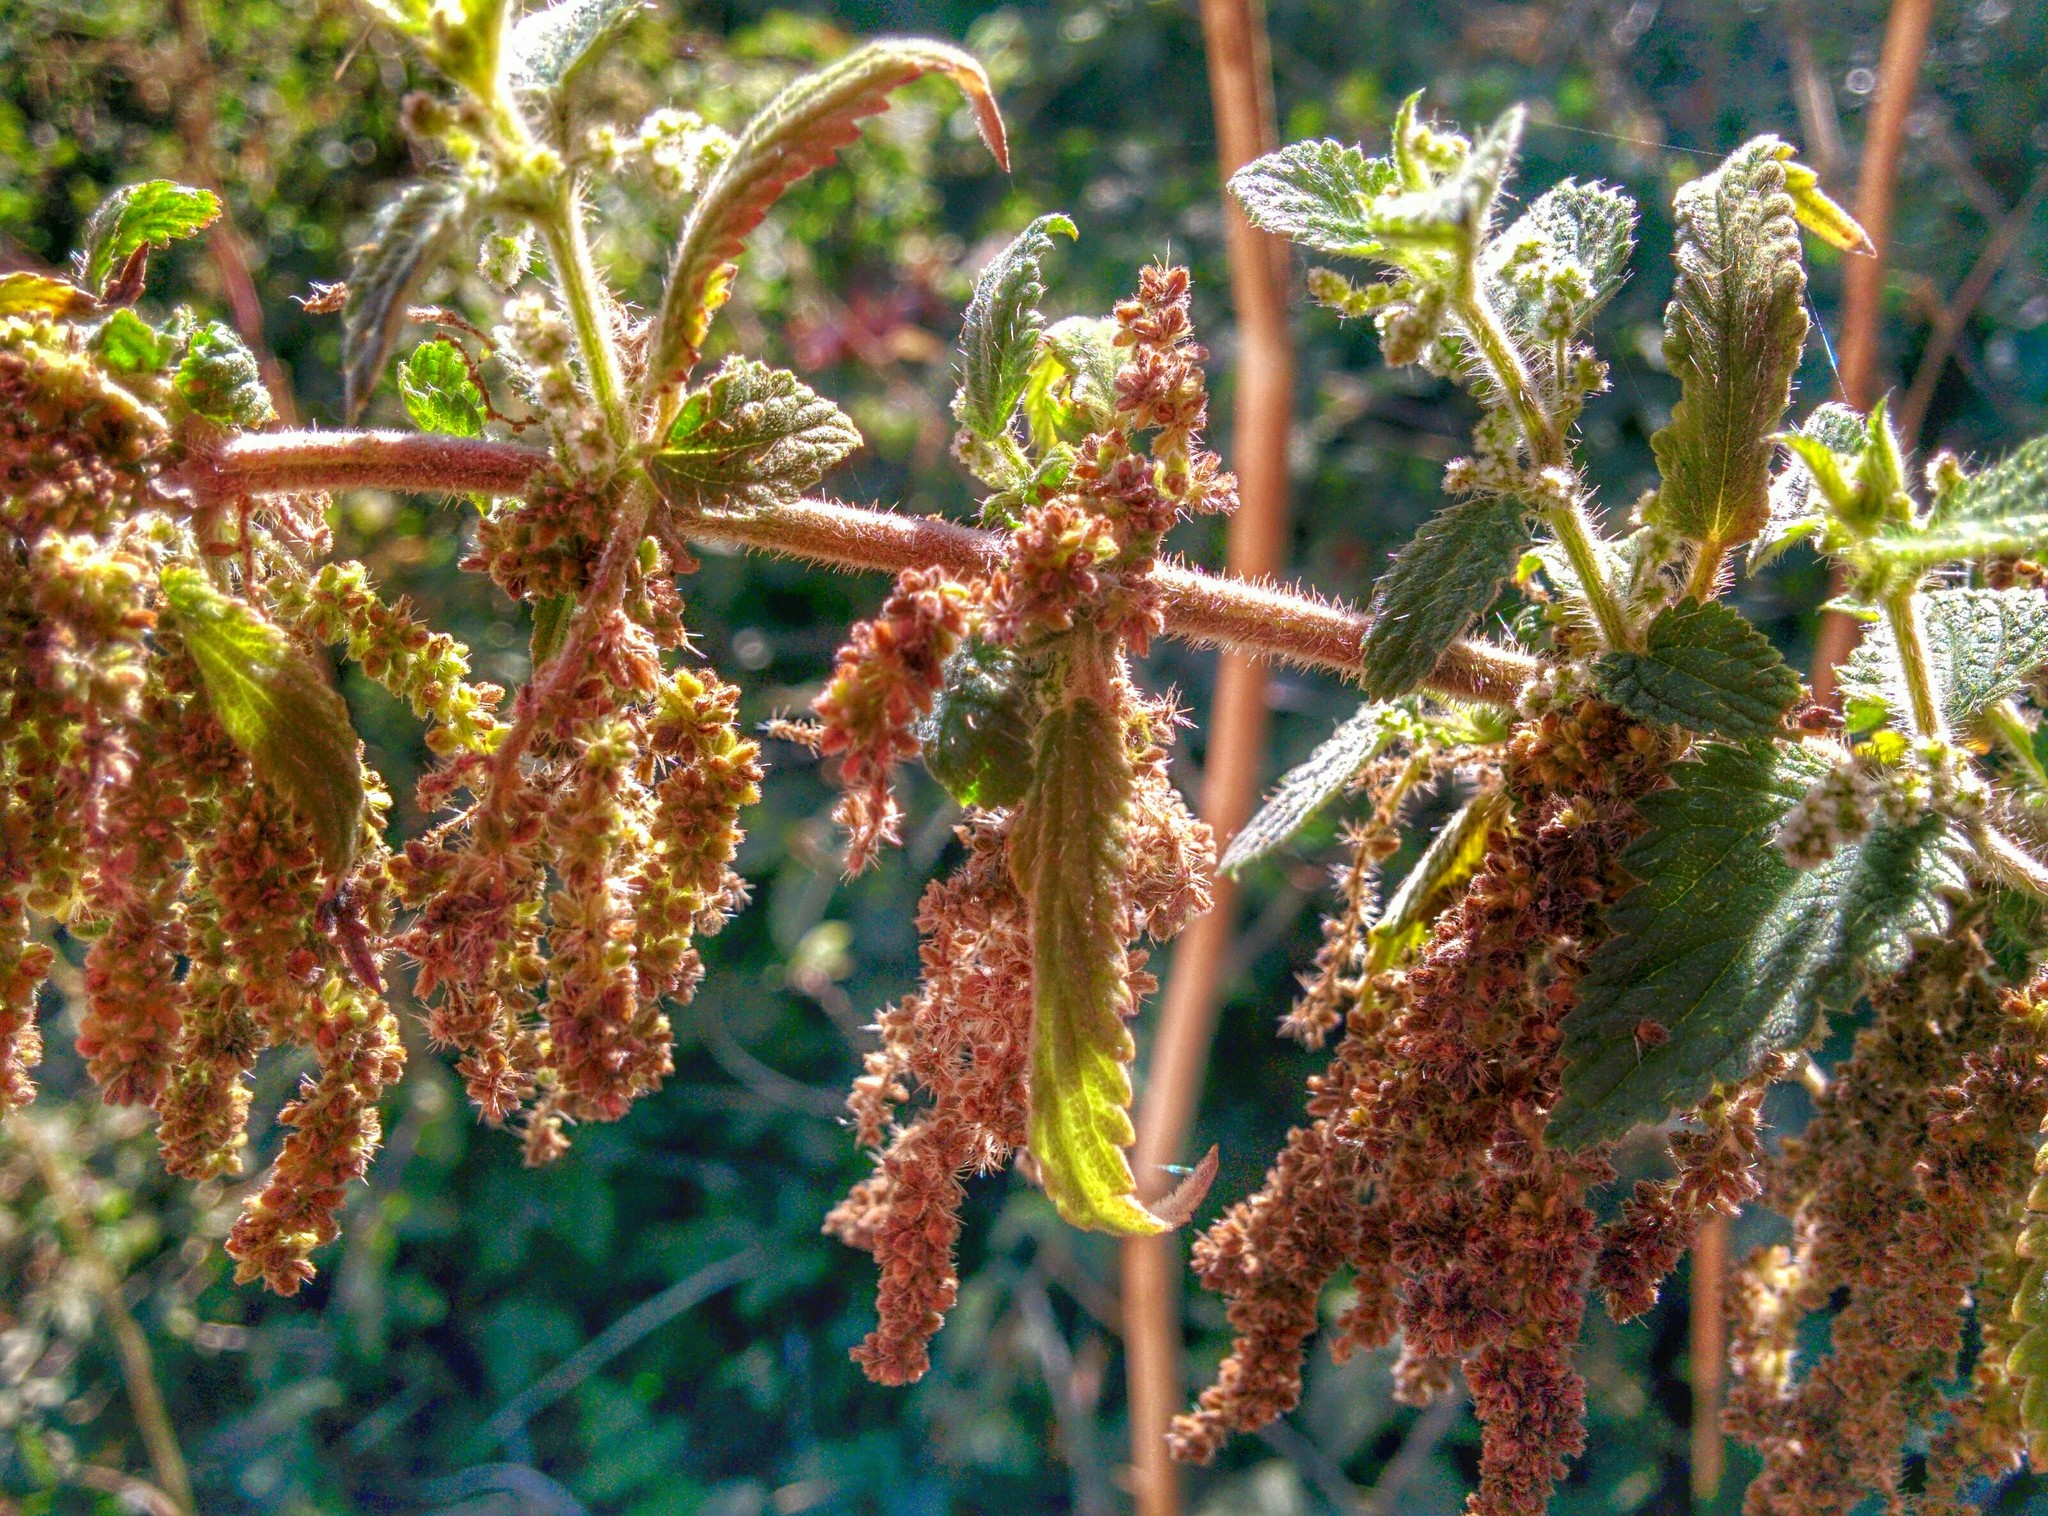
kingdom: Plantae
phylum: Tracheophyta
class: Magnoliopsida
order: Rosales
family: Urticaceae
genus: Urtica
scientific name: Urtica dioica
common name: Common nettle
